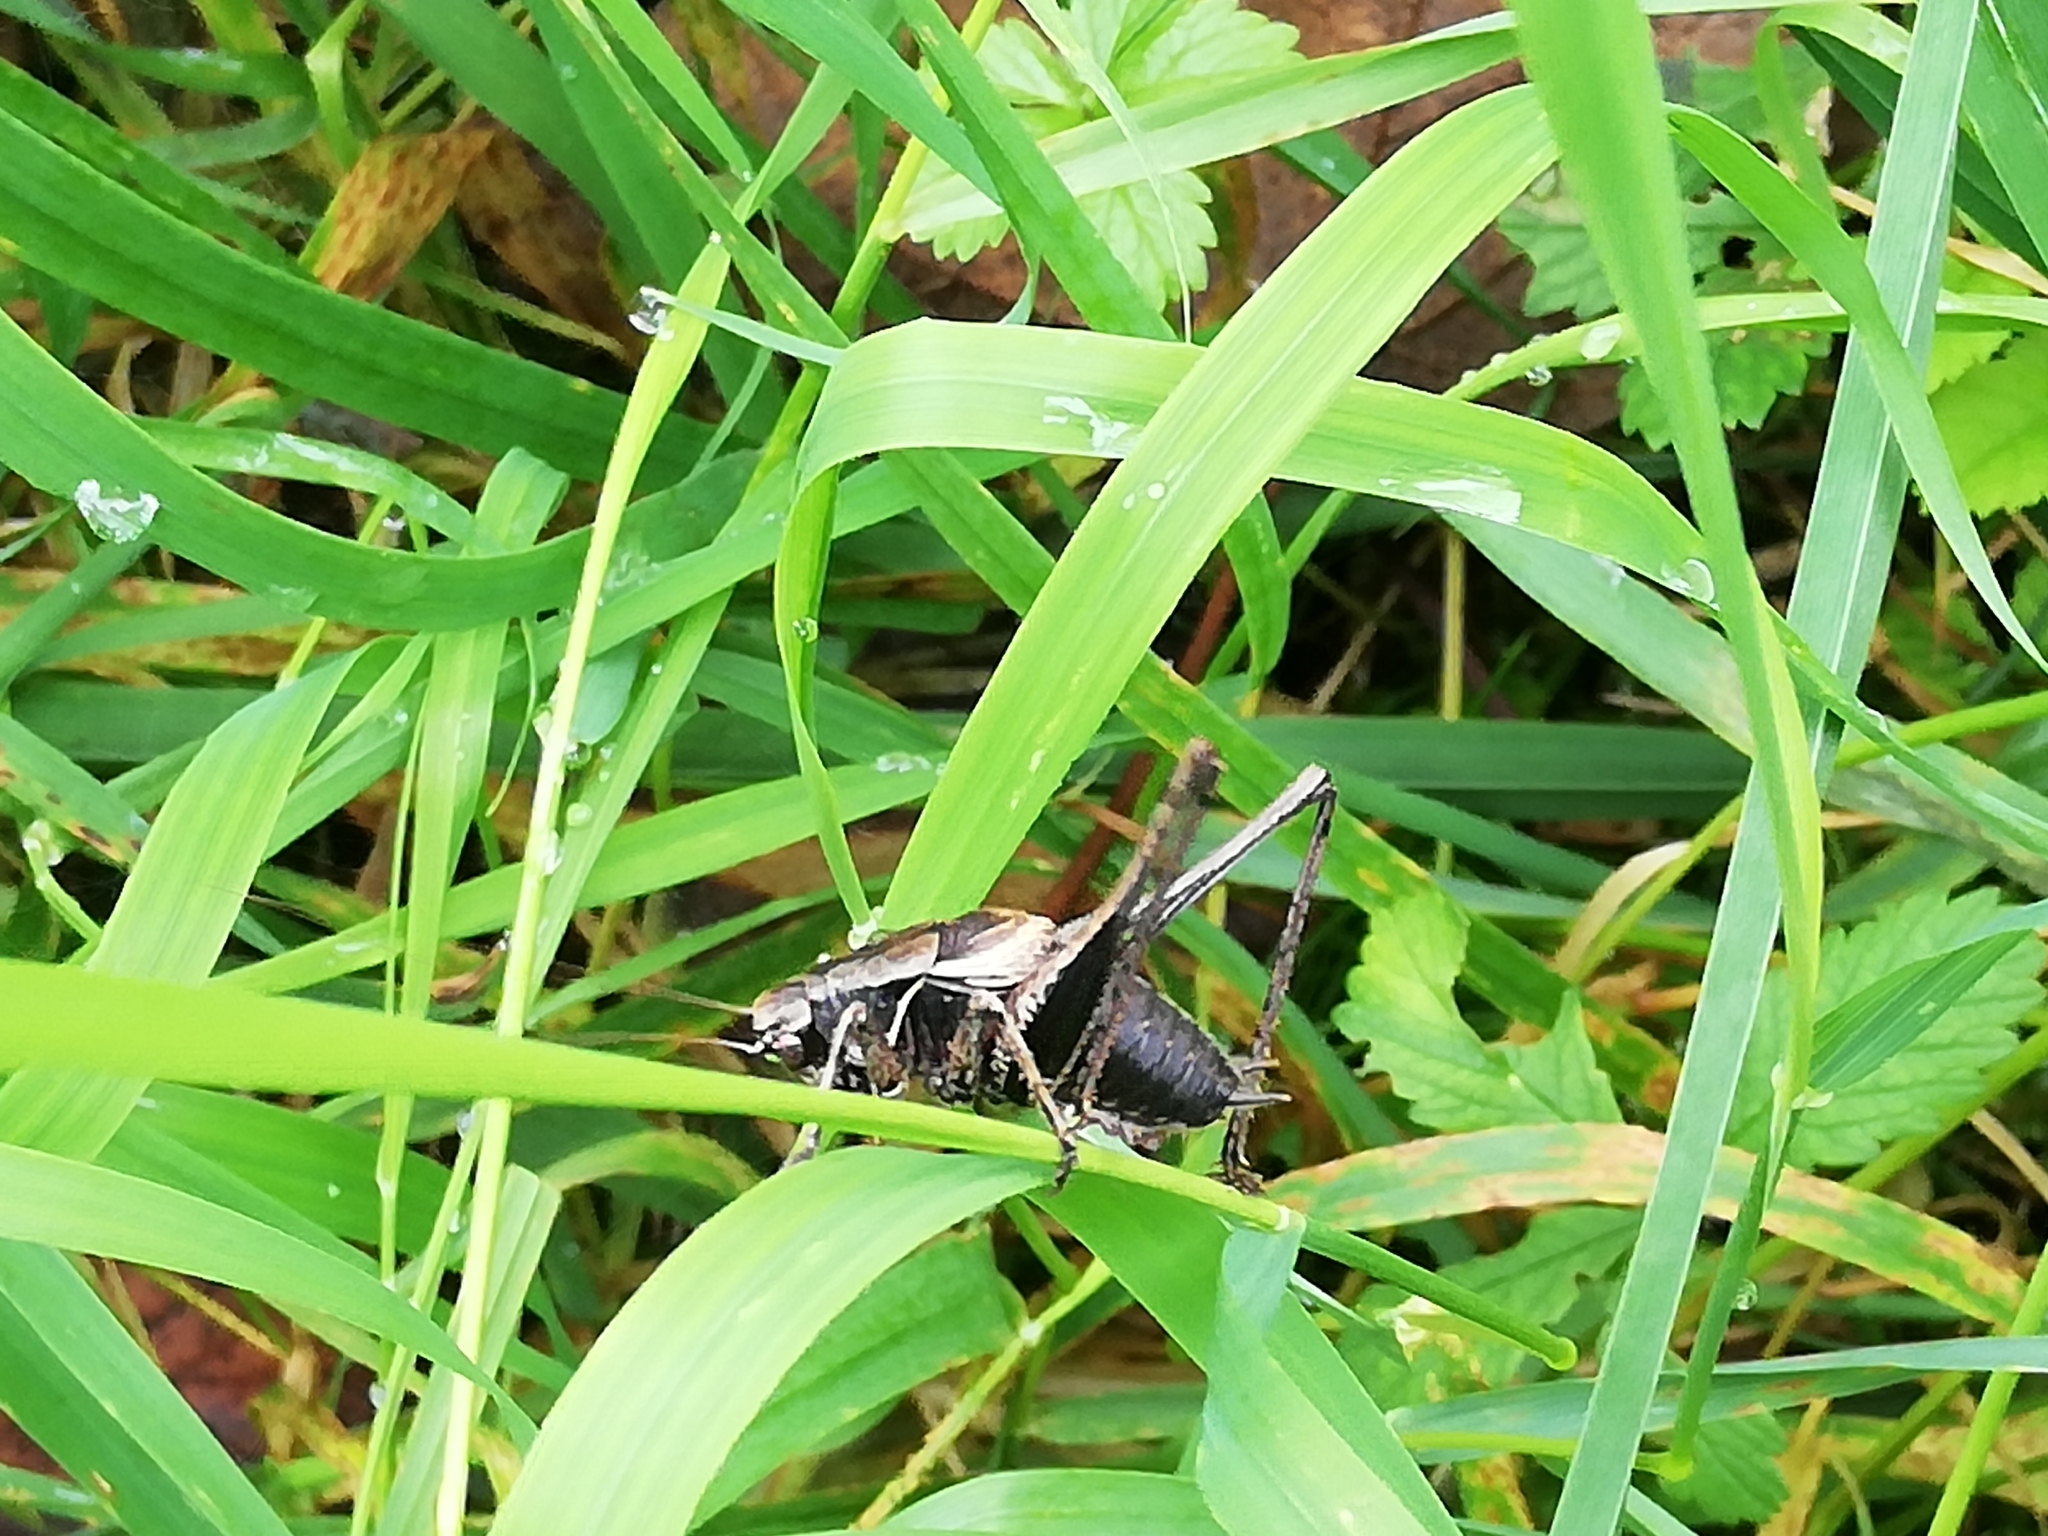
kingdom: Animalia
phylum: Arthropoda
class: Insecta
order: Orthoptera
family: Tettigoniidae
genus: Pholidoptera
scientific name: Pholidoptera griseoaptera
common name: Dark bush-cricket
